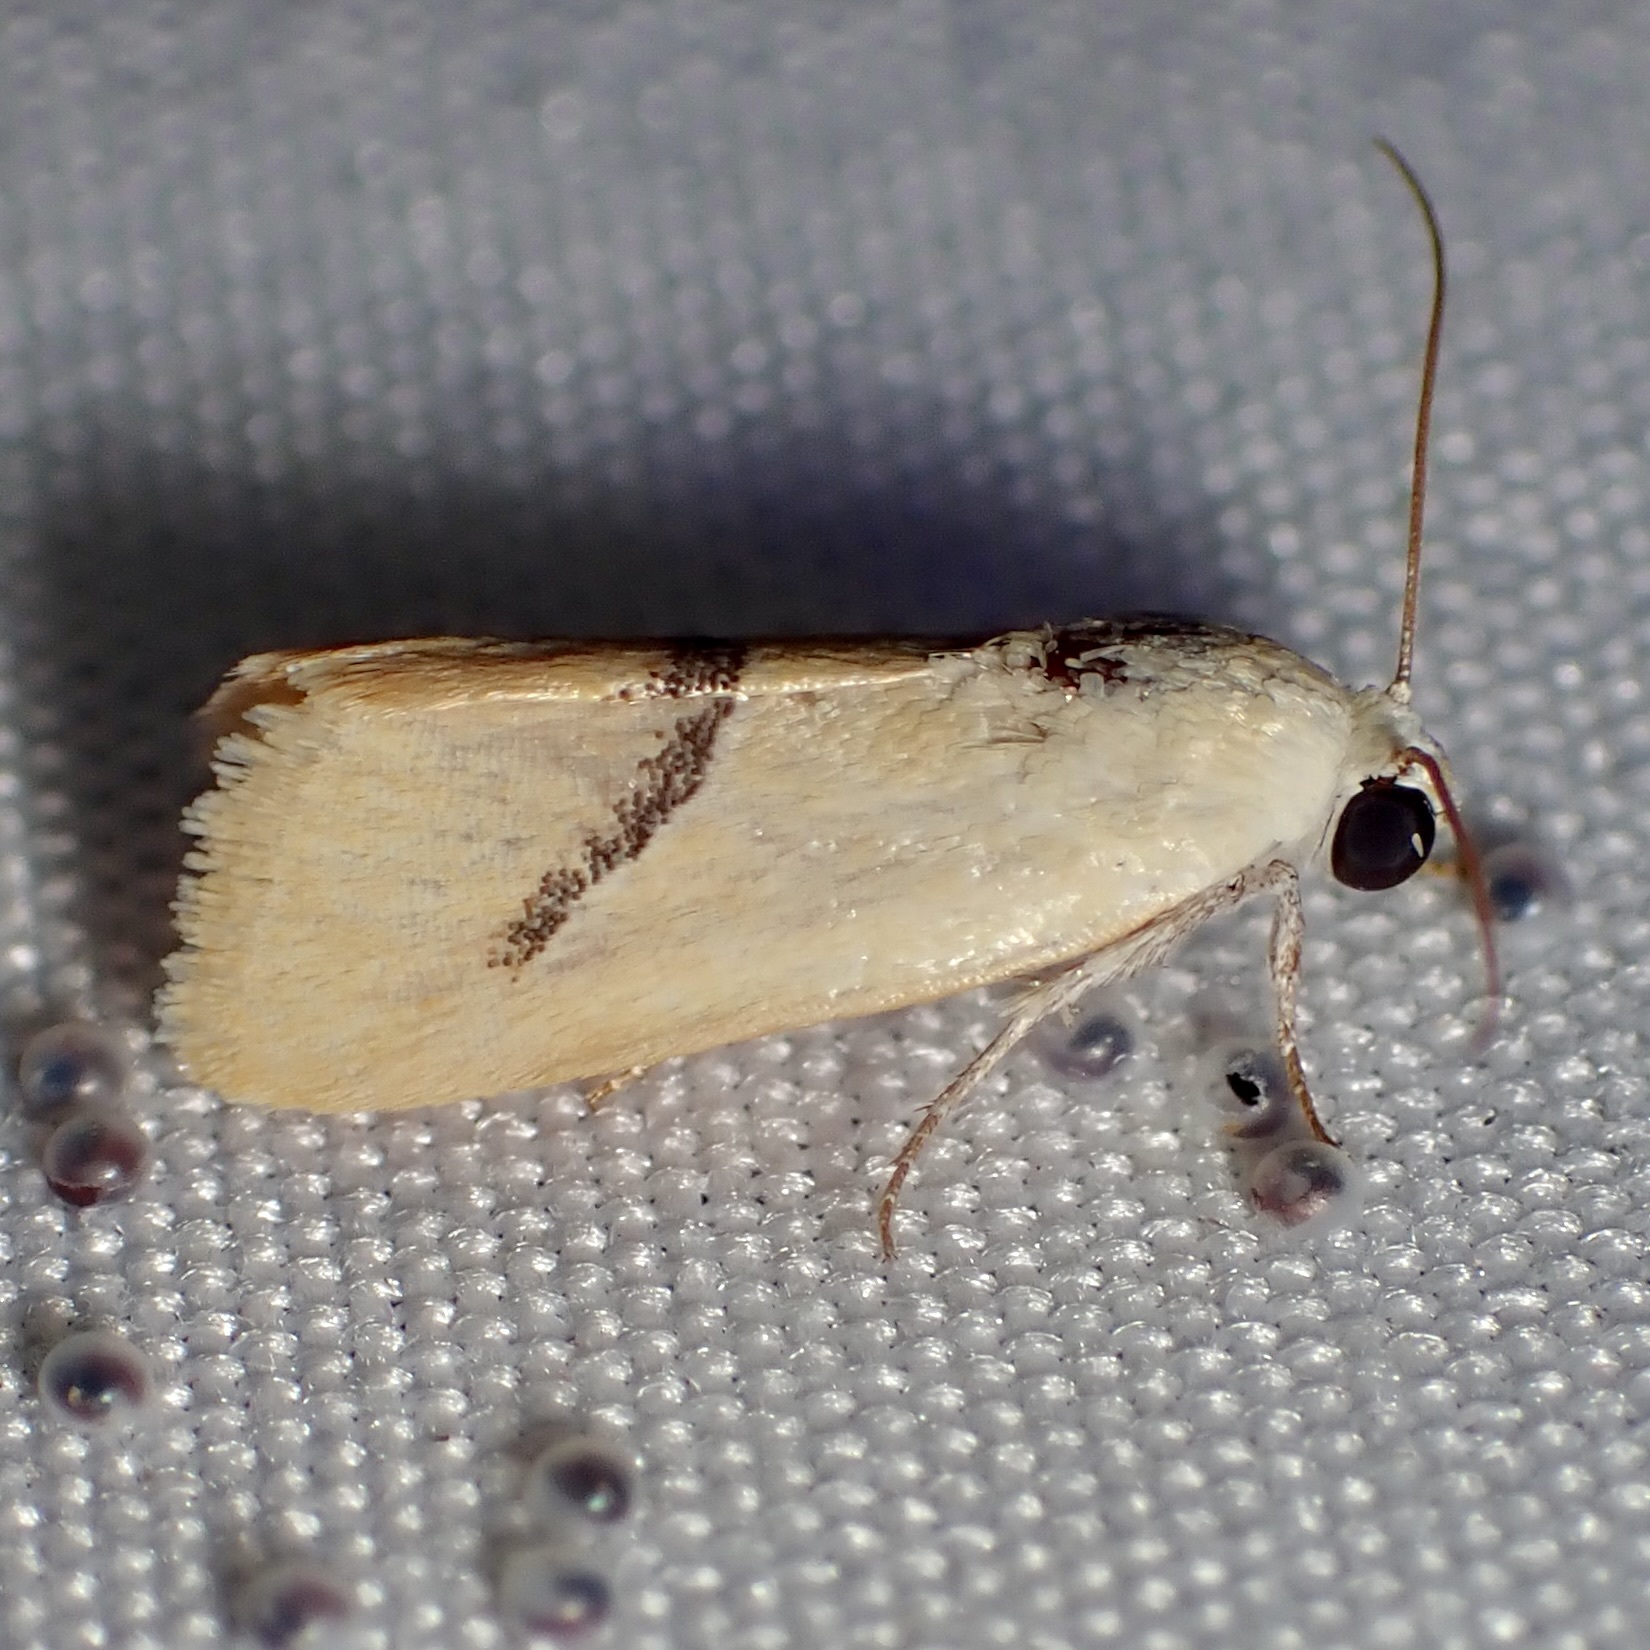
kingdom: Animalia
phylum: Arthropoda
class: Insecta
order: Lepidoptera
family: Noctuidae
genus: Ponometia
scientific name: Ponometia venustula
